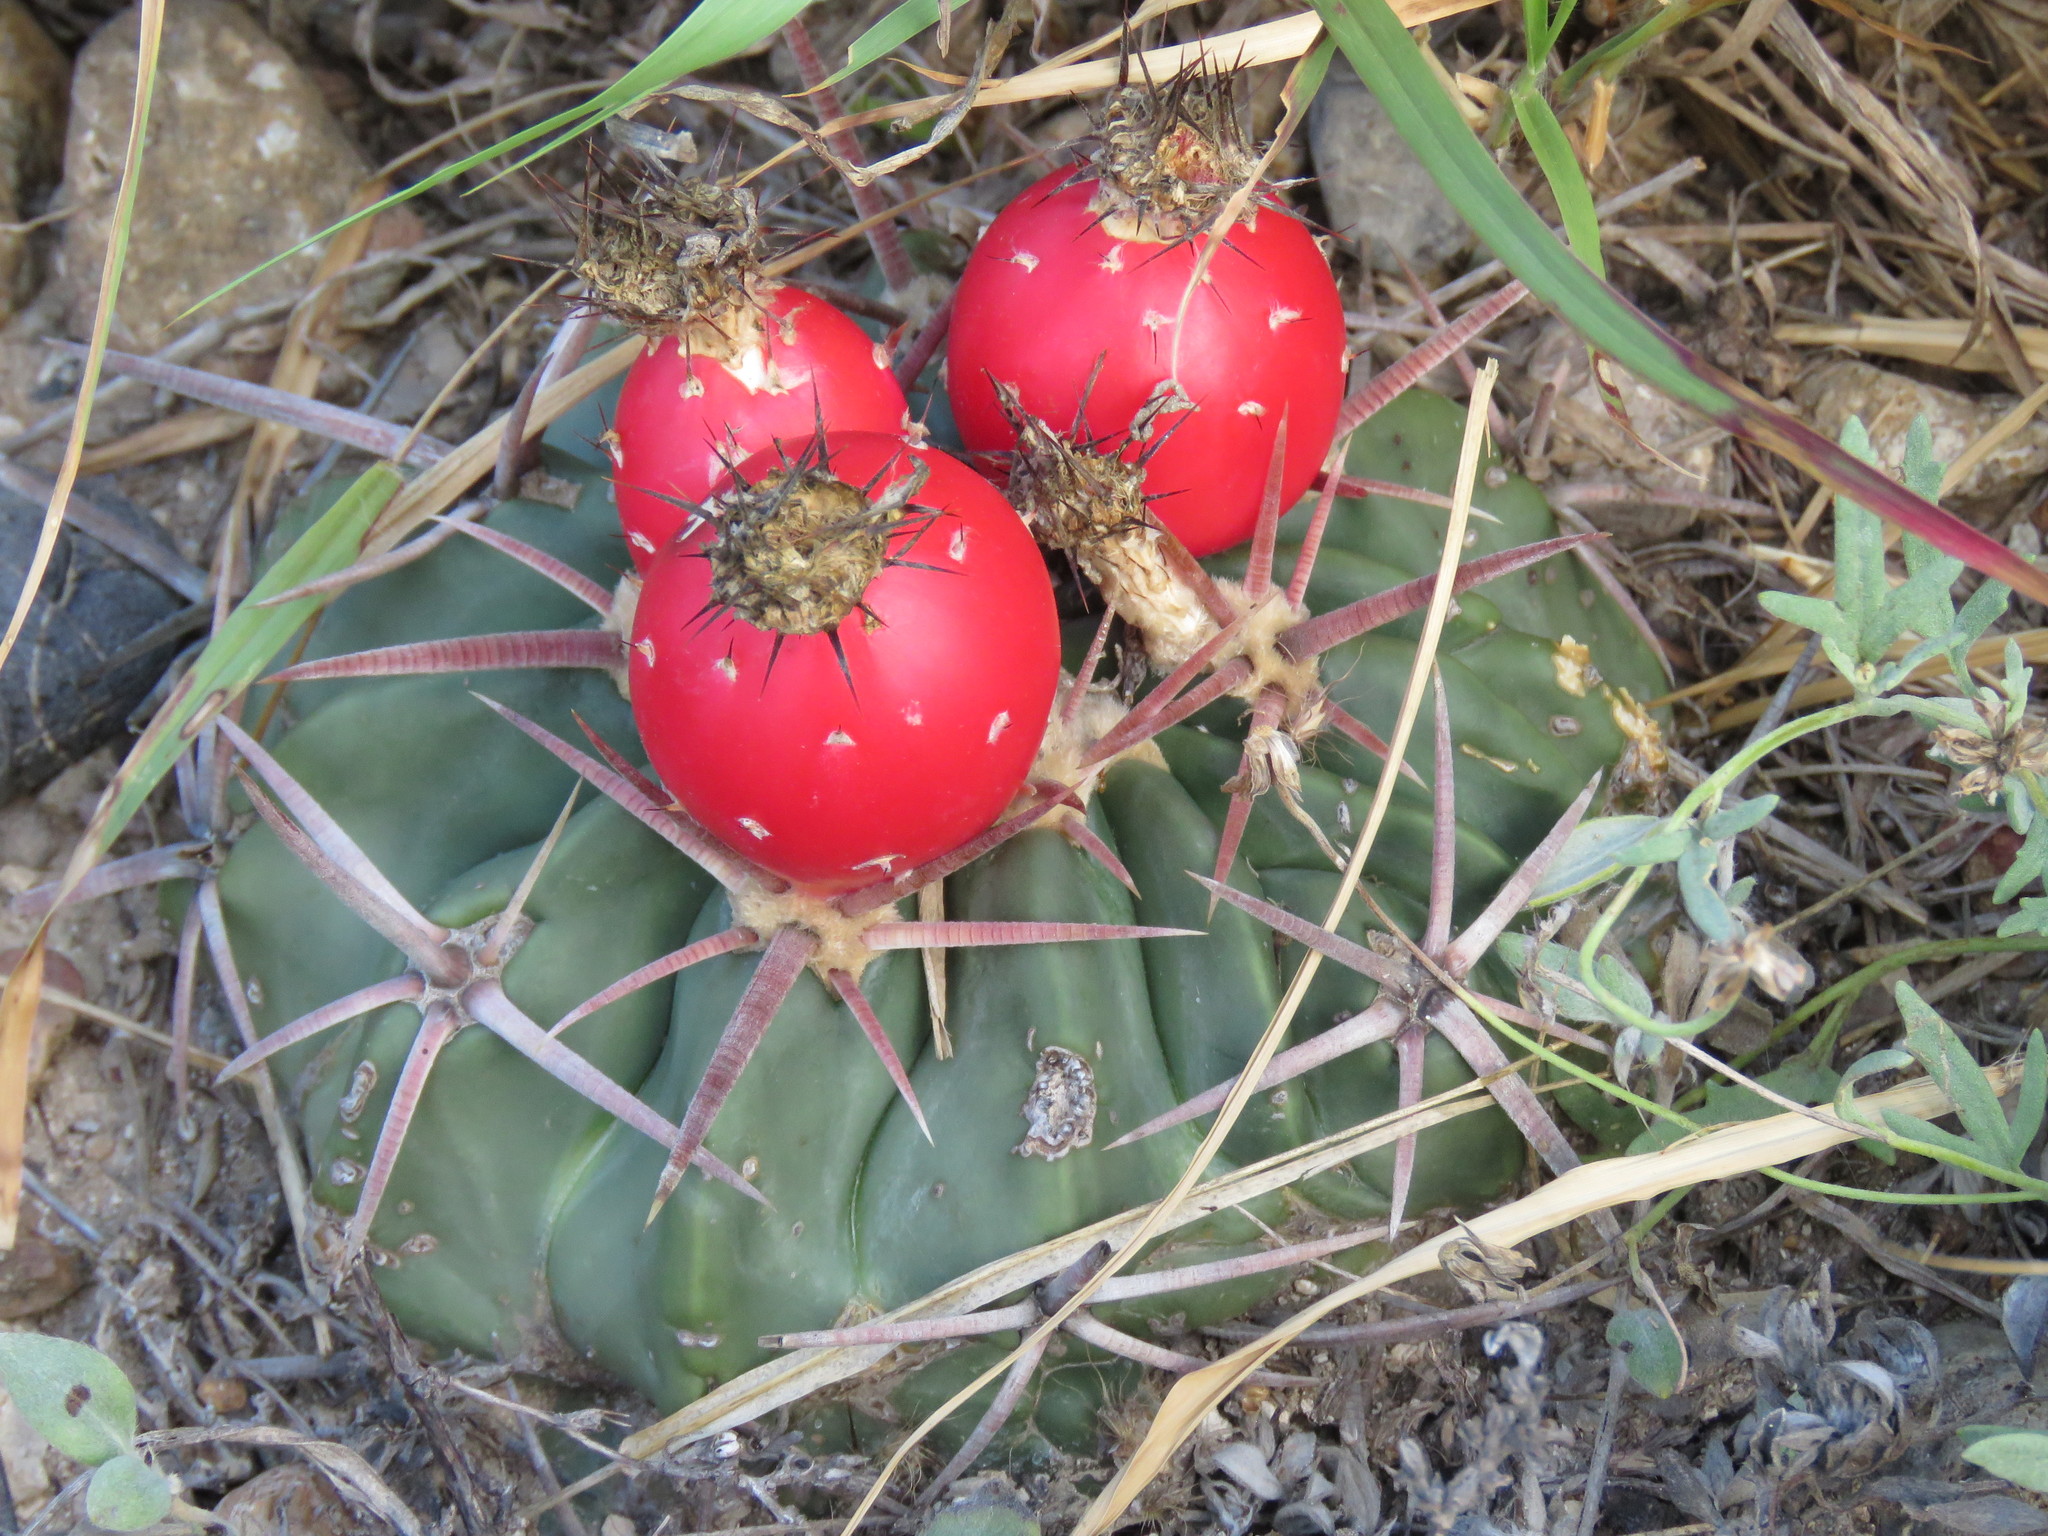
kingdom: Plantae
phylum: Tracheophyta
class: Magnoliopsida
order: Caryophyllales
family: Cactaceae
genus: Echinocactus
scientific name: Echinocactus texensis
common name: Devil's pincushion
